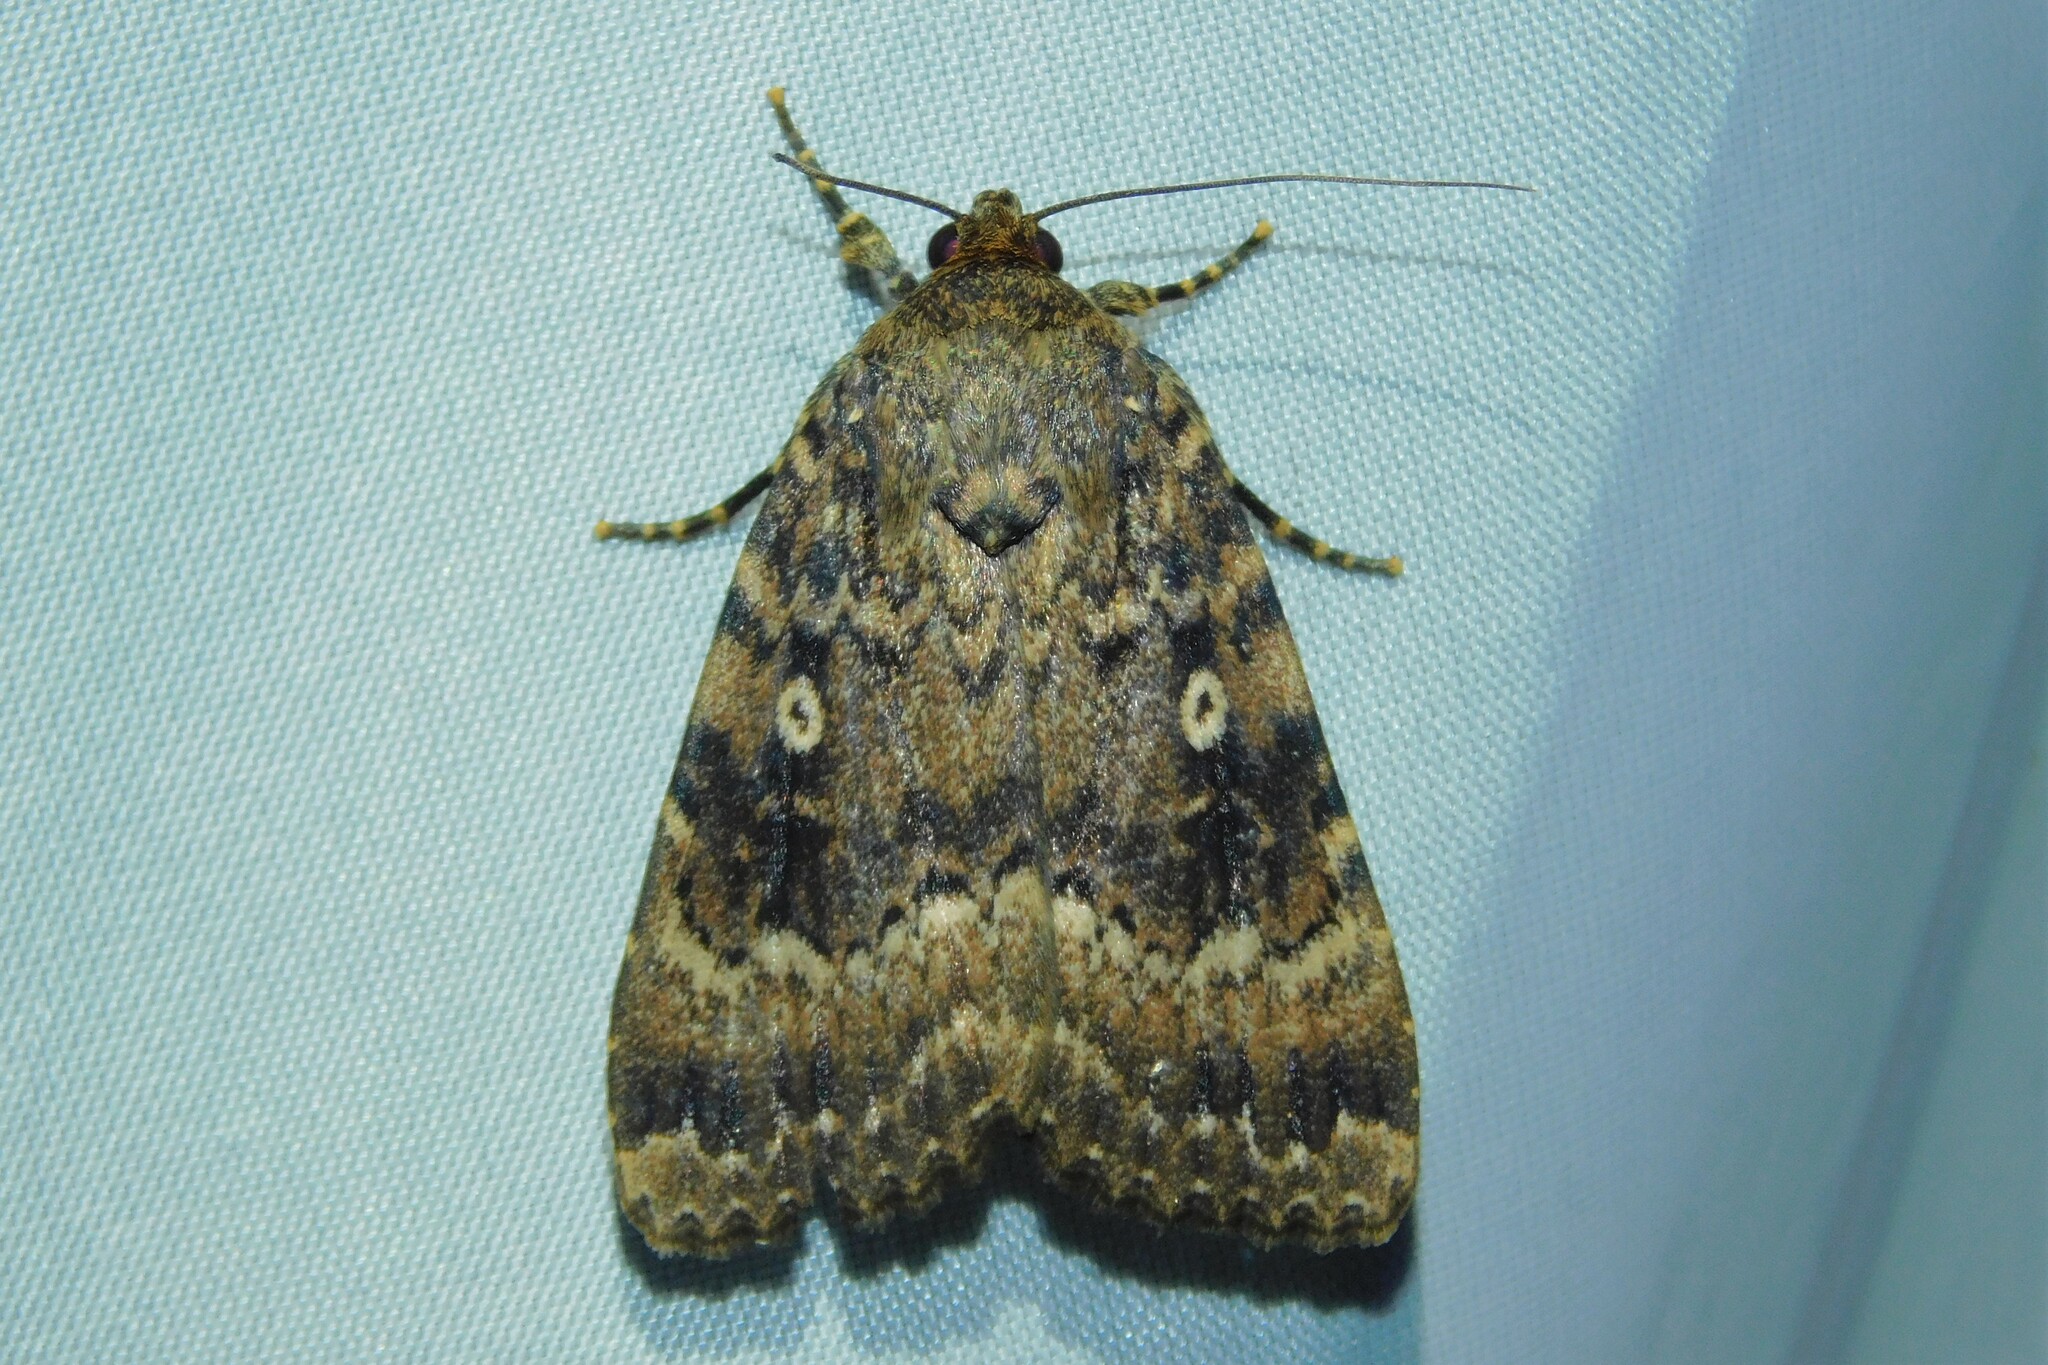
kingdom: Animalia
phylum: Arthropoda
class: Insecta
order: Lepidoptera
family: Noctuidae
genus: Amphipyra
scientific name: Amphipyra berbera
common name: Svensson's copper underwing
